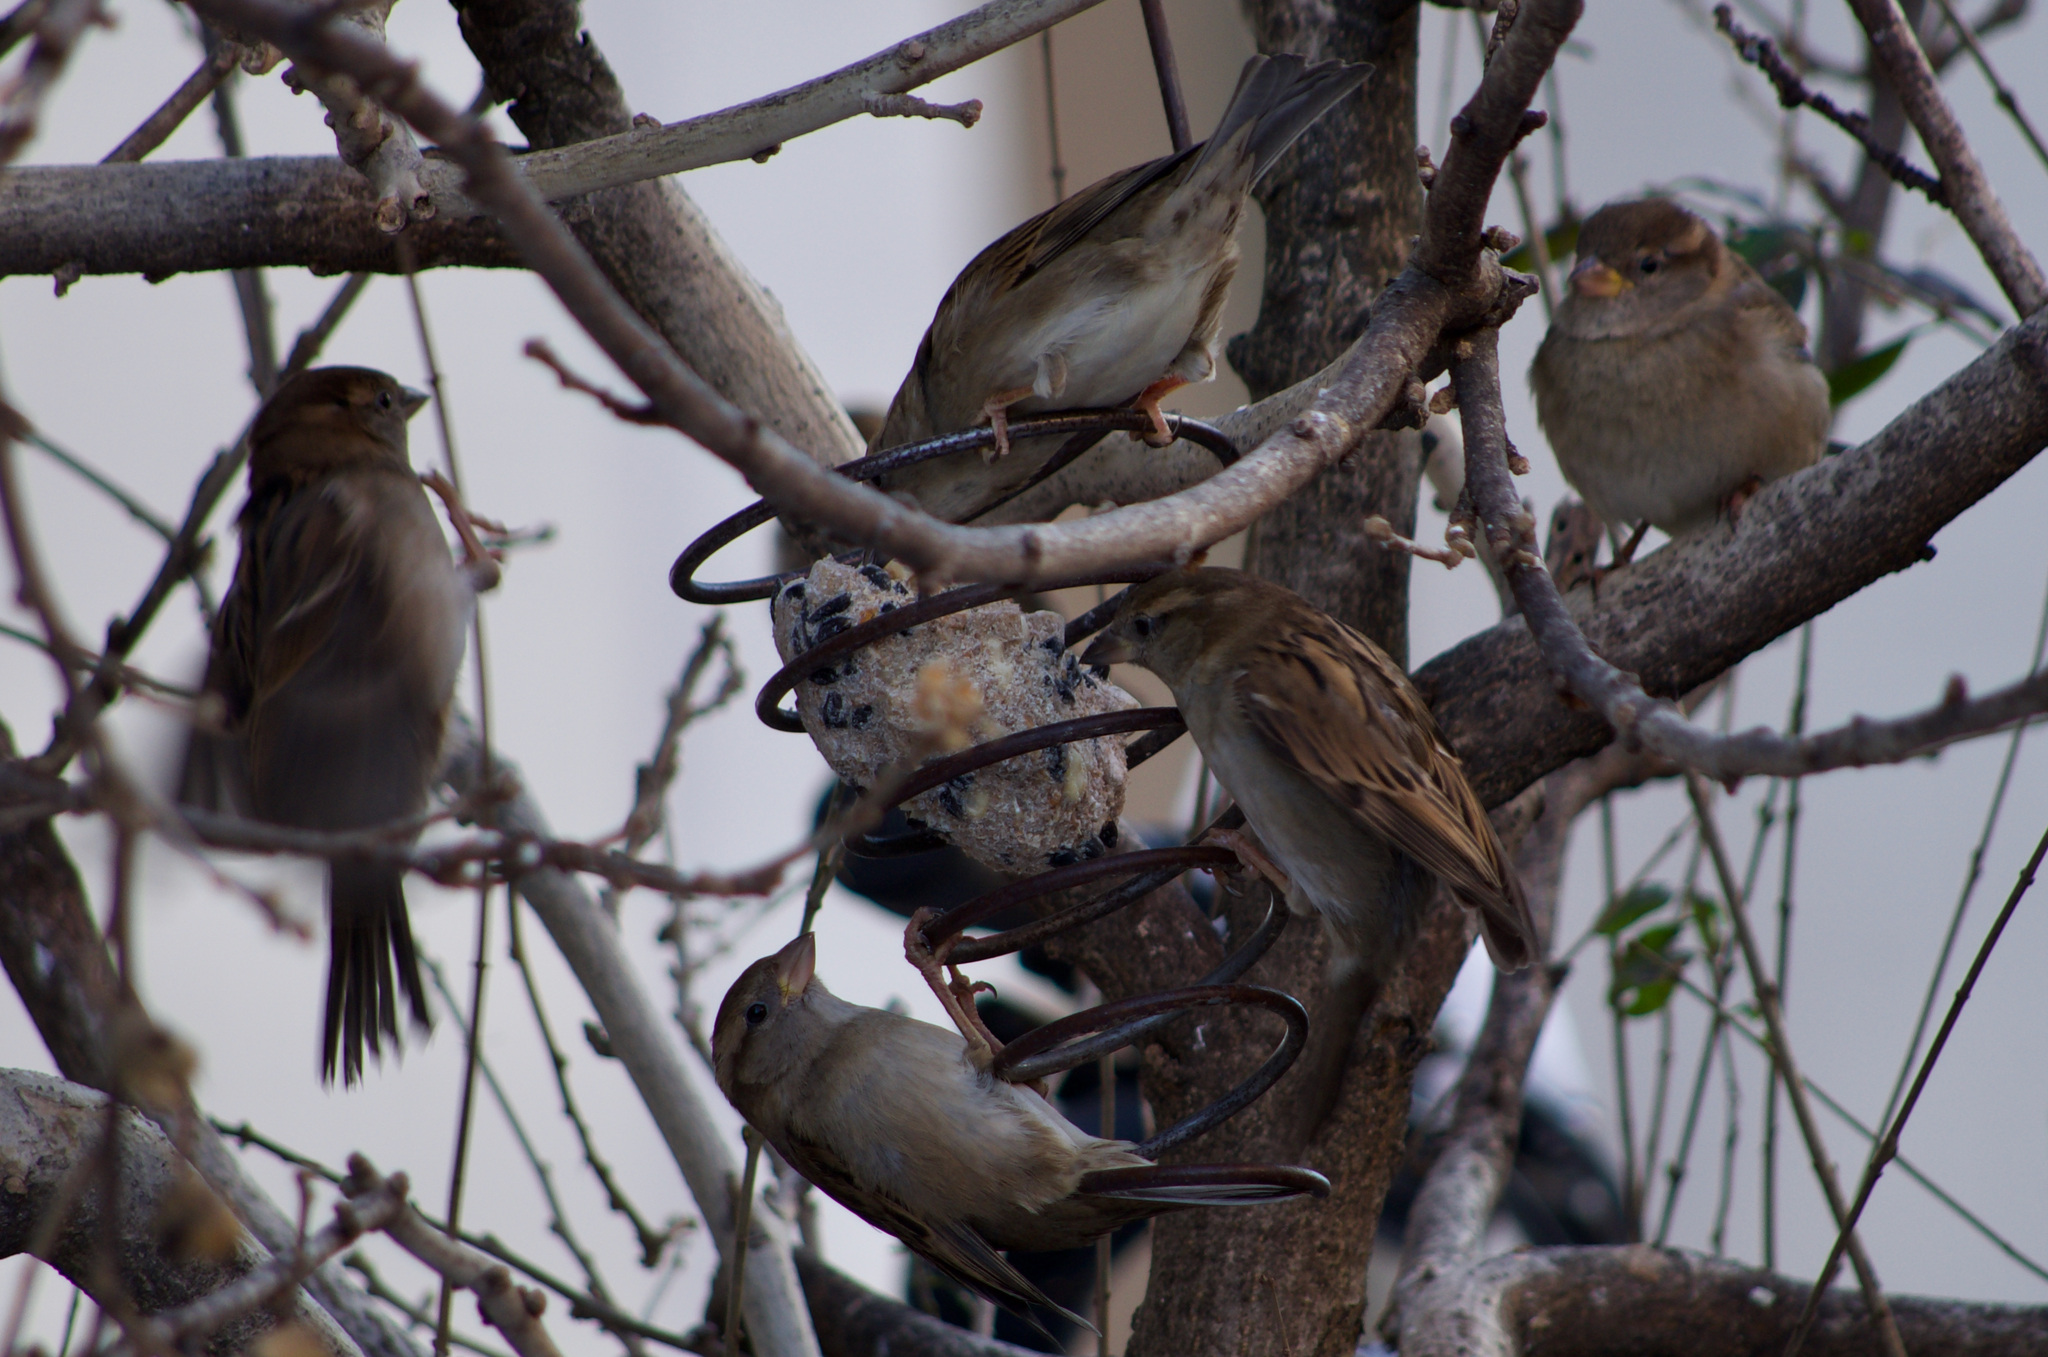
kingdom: Animalia
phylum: Chordata
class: Aves
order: Passeriformes
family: Passeridae
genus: Passer
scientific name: Passer domesticus
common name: House sparrow
